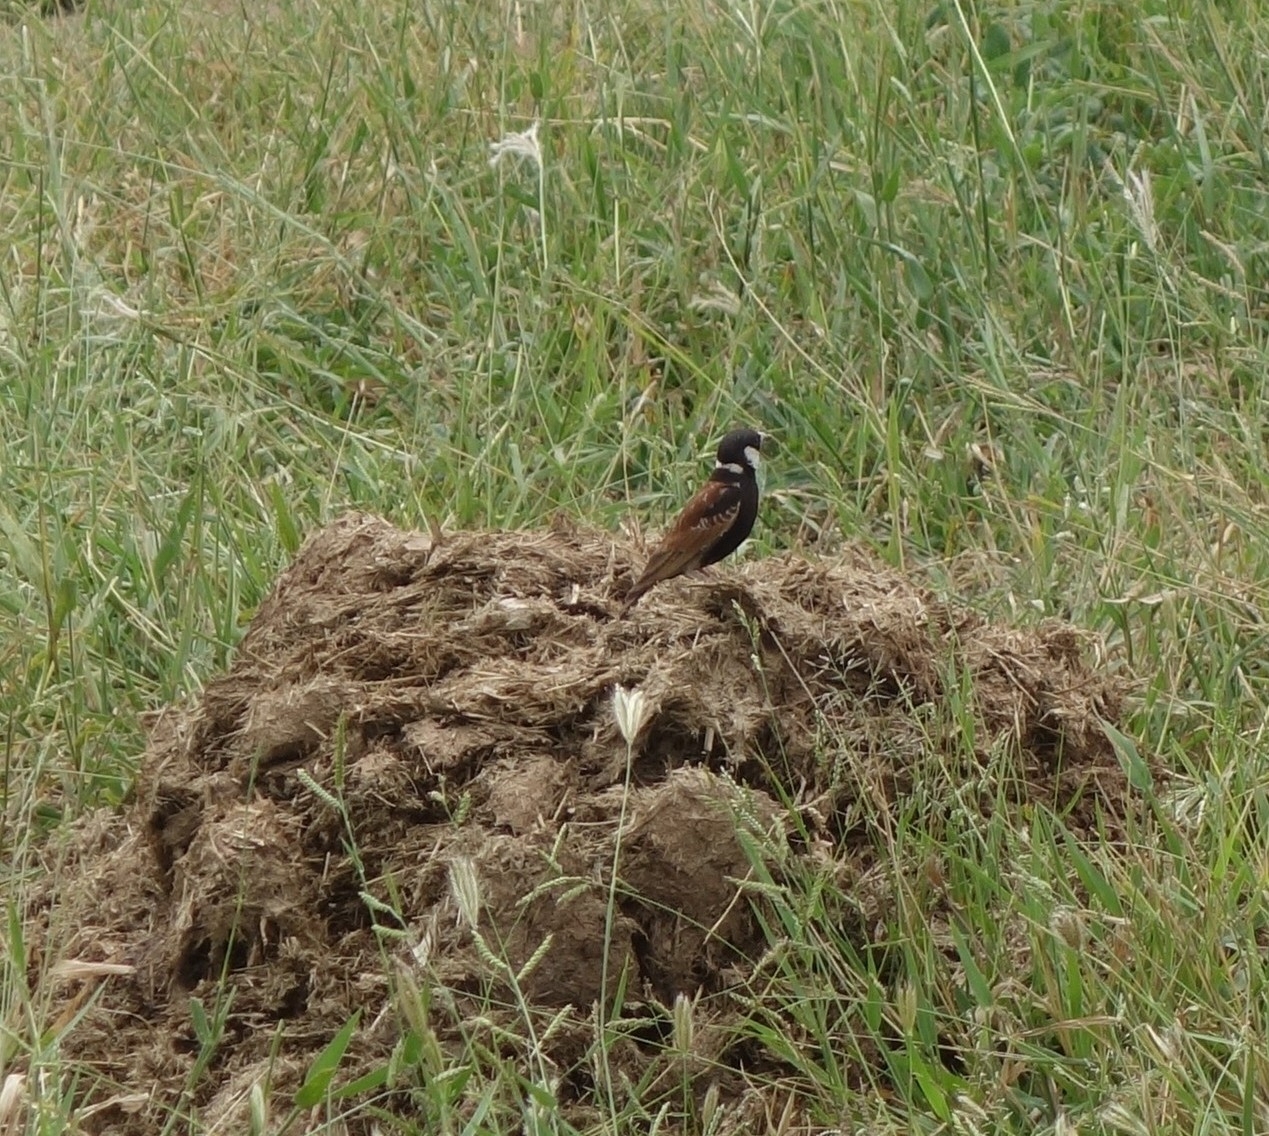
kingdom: Animalia
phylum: Chordata
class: Aves
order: Passeriformes
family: Alaudidae
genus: Eremopterix
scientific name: Eremopterix leucotis
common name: Chestnut-backed sparrow-lark
